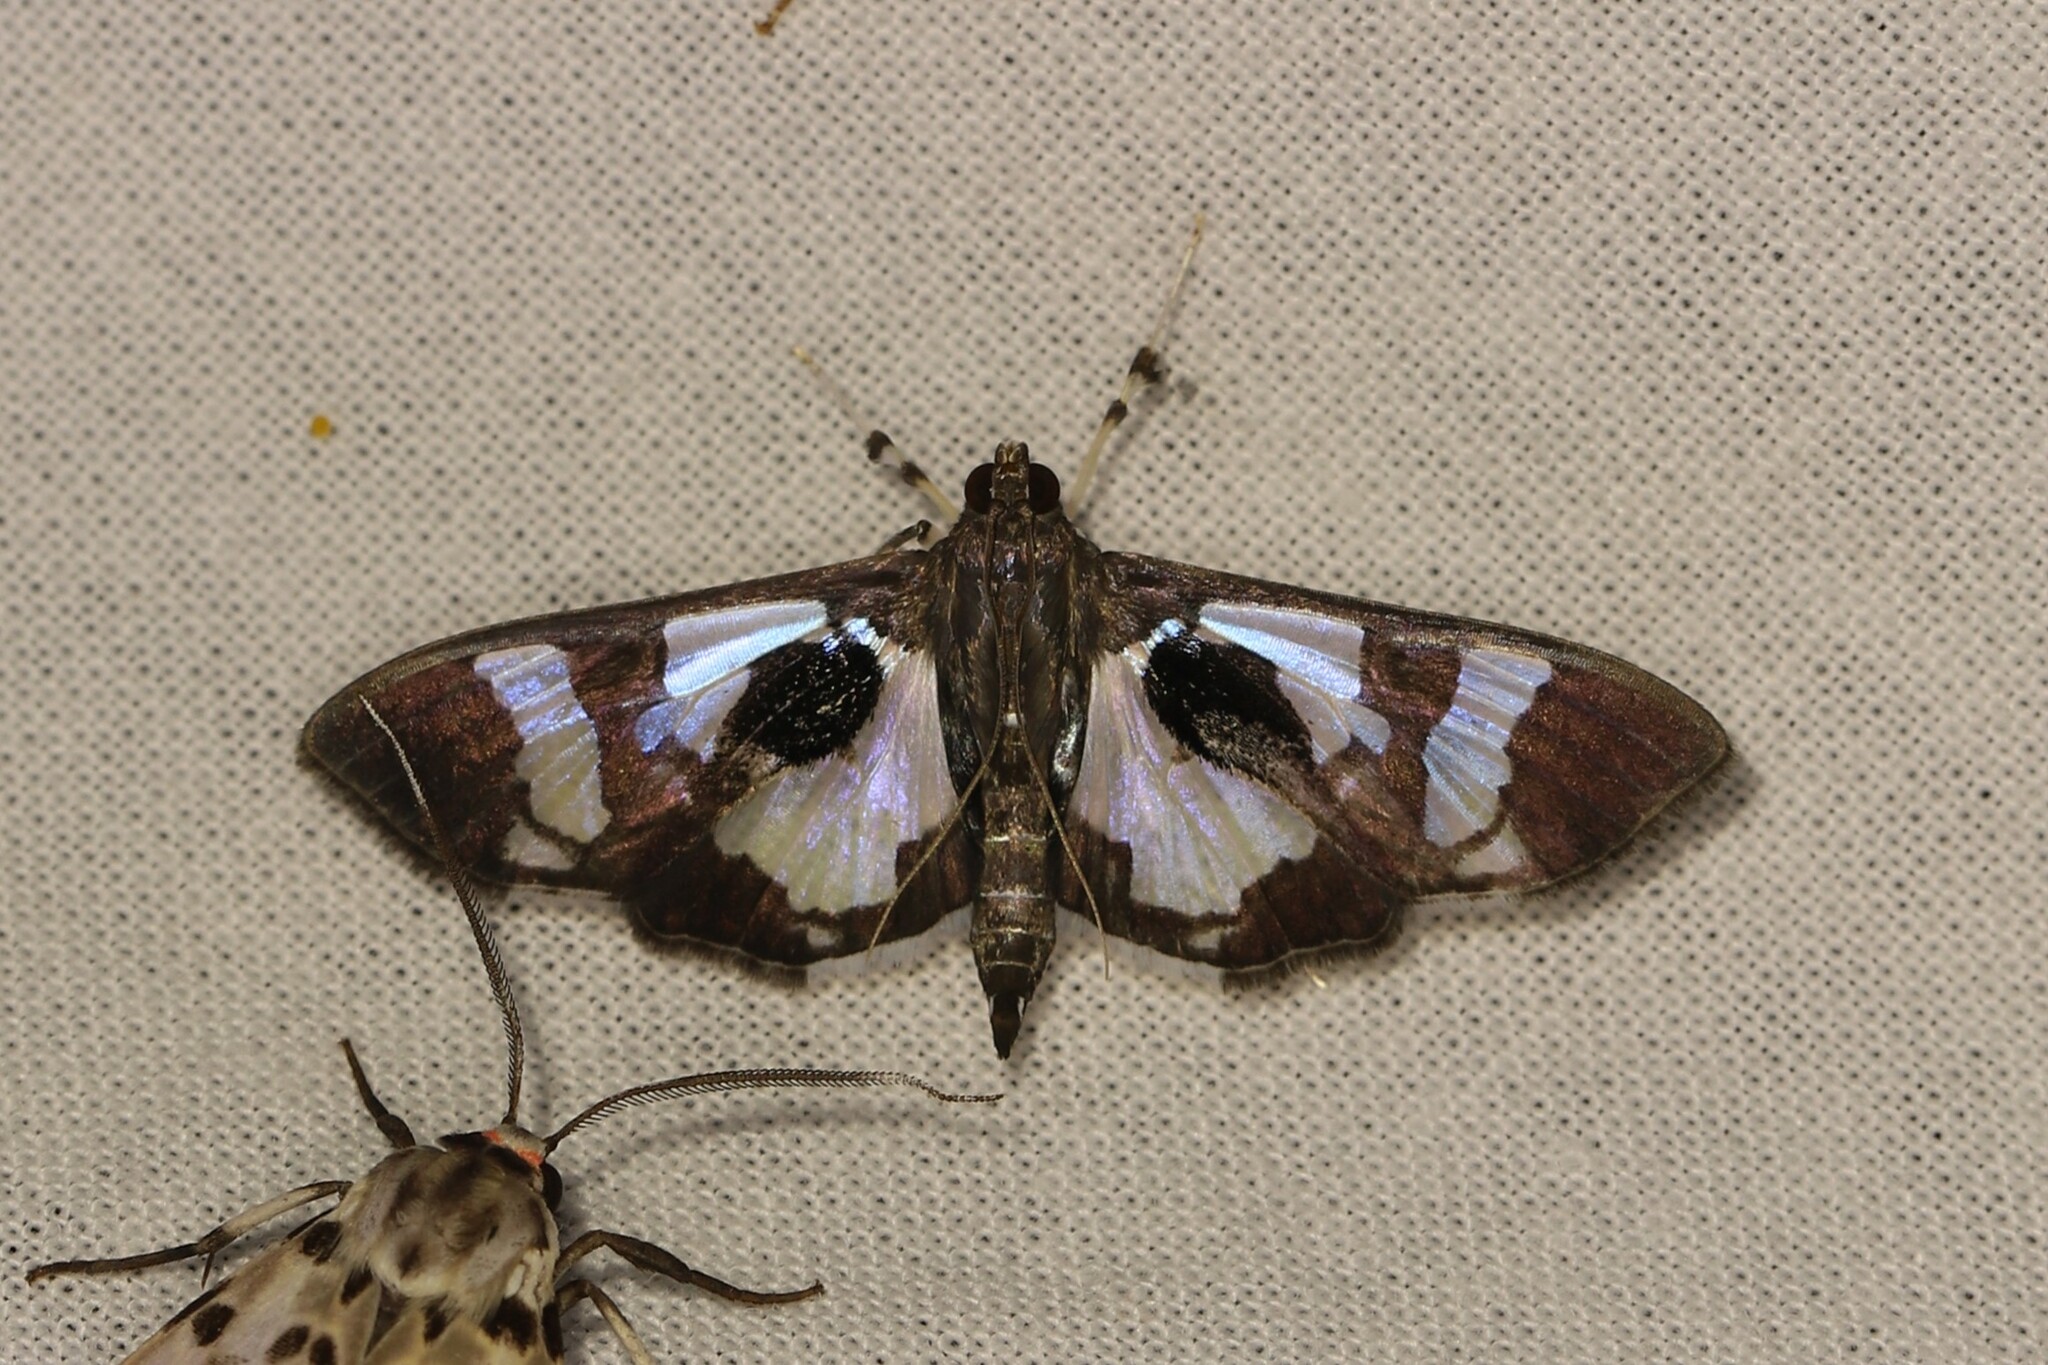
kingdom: Animalia
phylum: Arthropoda
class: Insecta
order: Lepidoptera
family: Crambidae
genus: Desmia
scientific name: Desmia bajulalis
